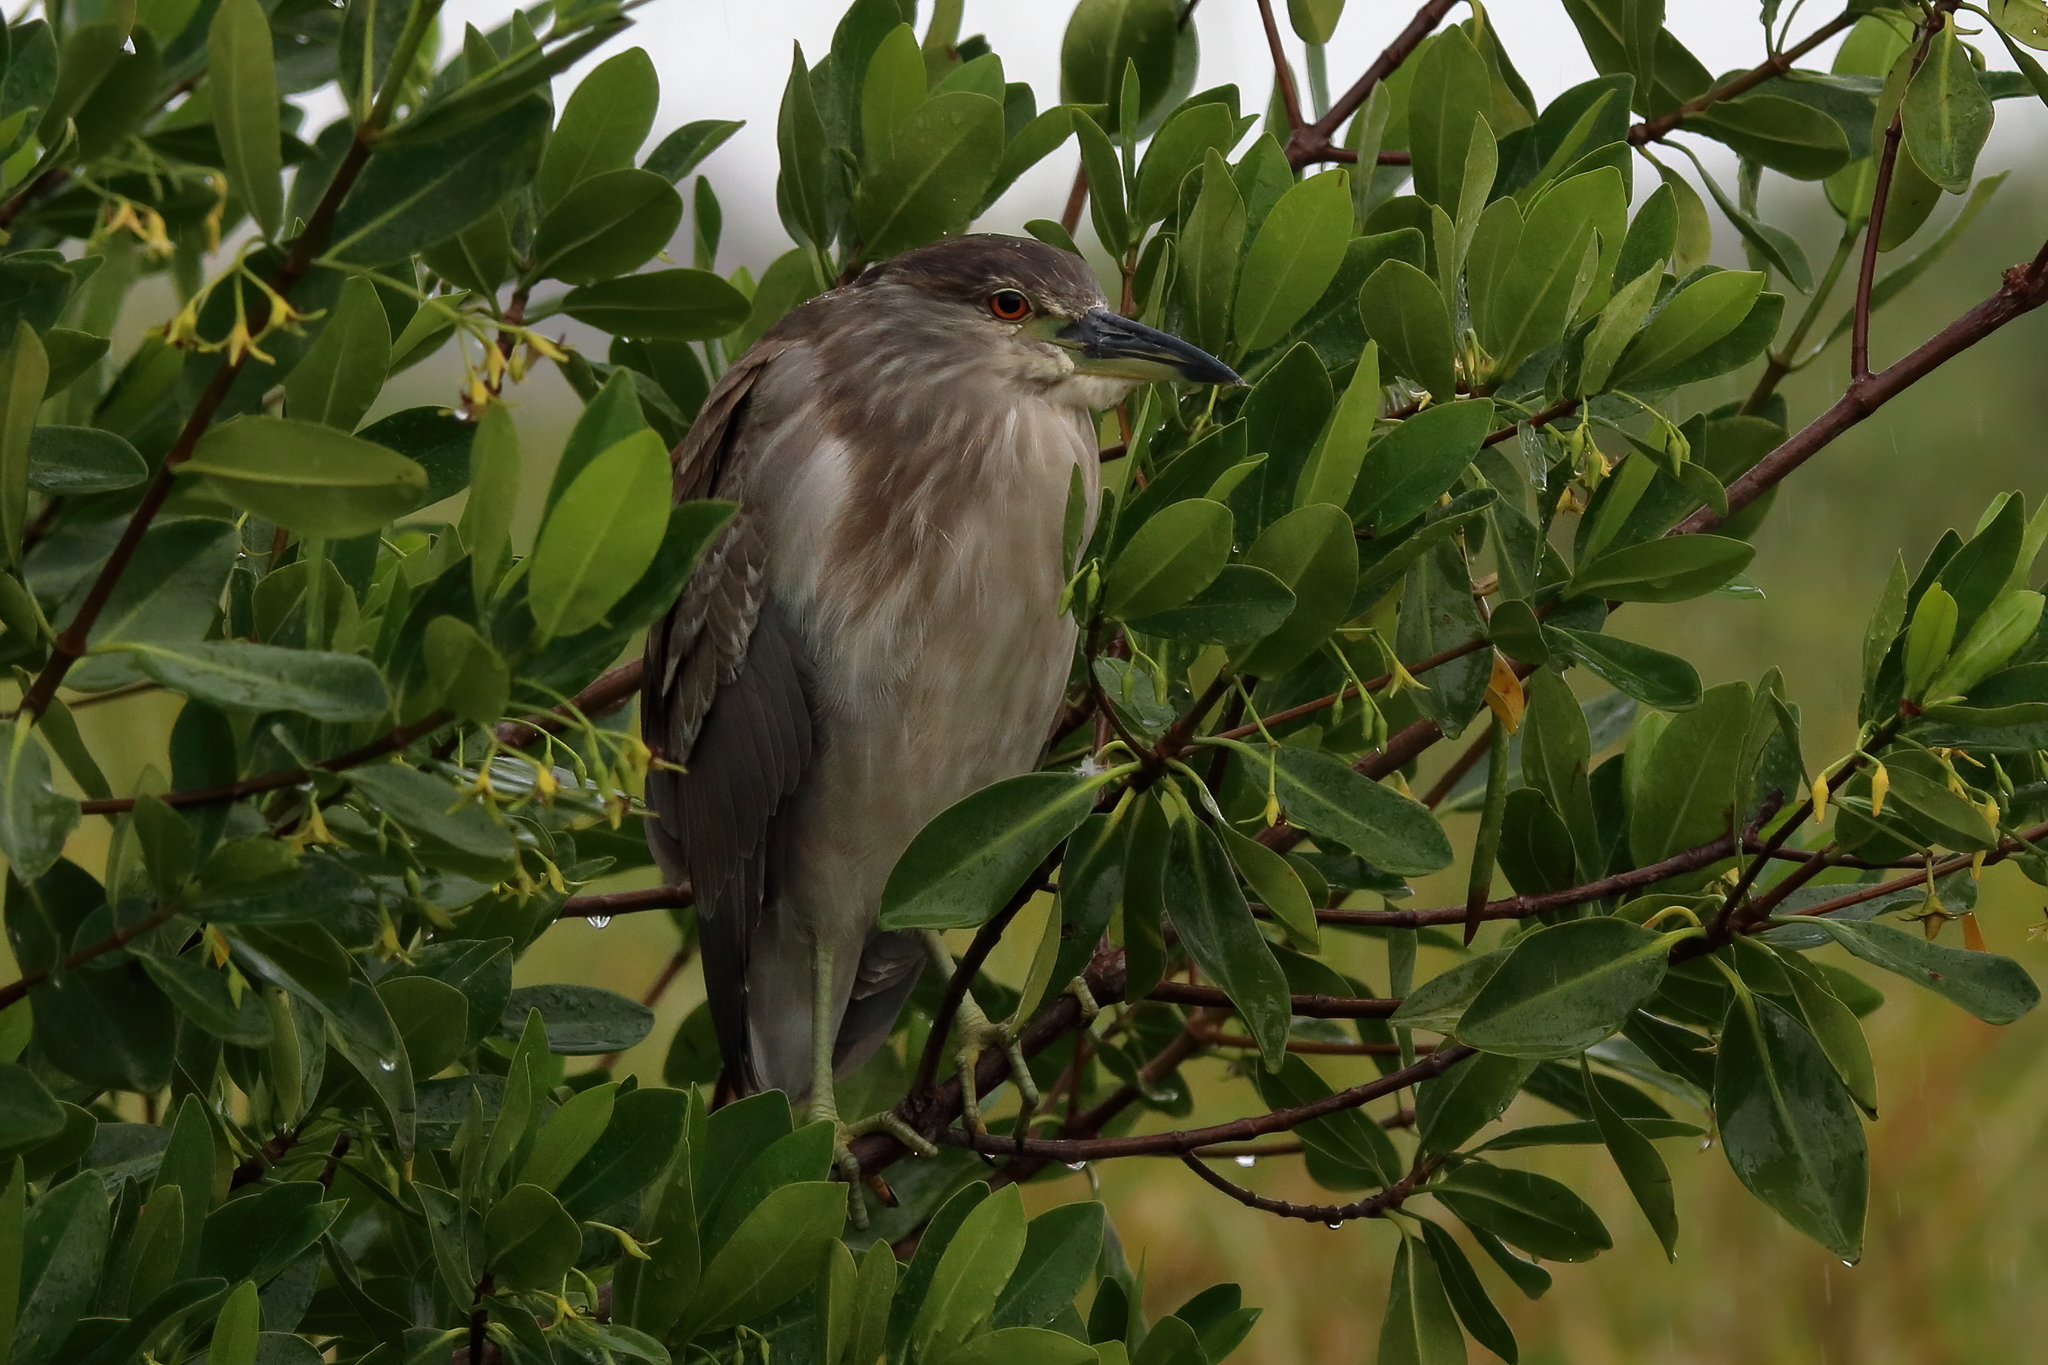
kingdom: Animalia
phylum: Chordata
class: Aves
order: Pelecaniformes
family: Ardeidae
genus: Nycticorax
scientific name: Nycticorax nycticorax
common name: Black-crowned night heron
